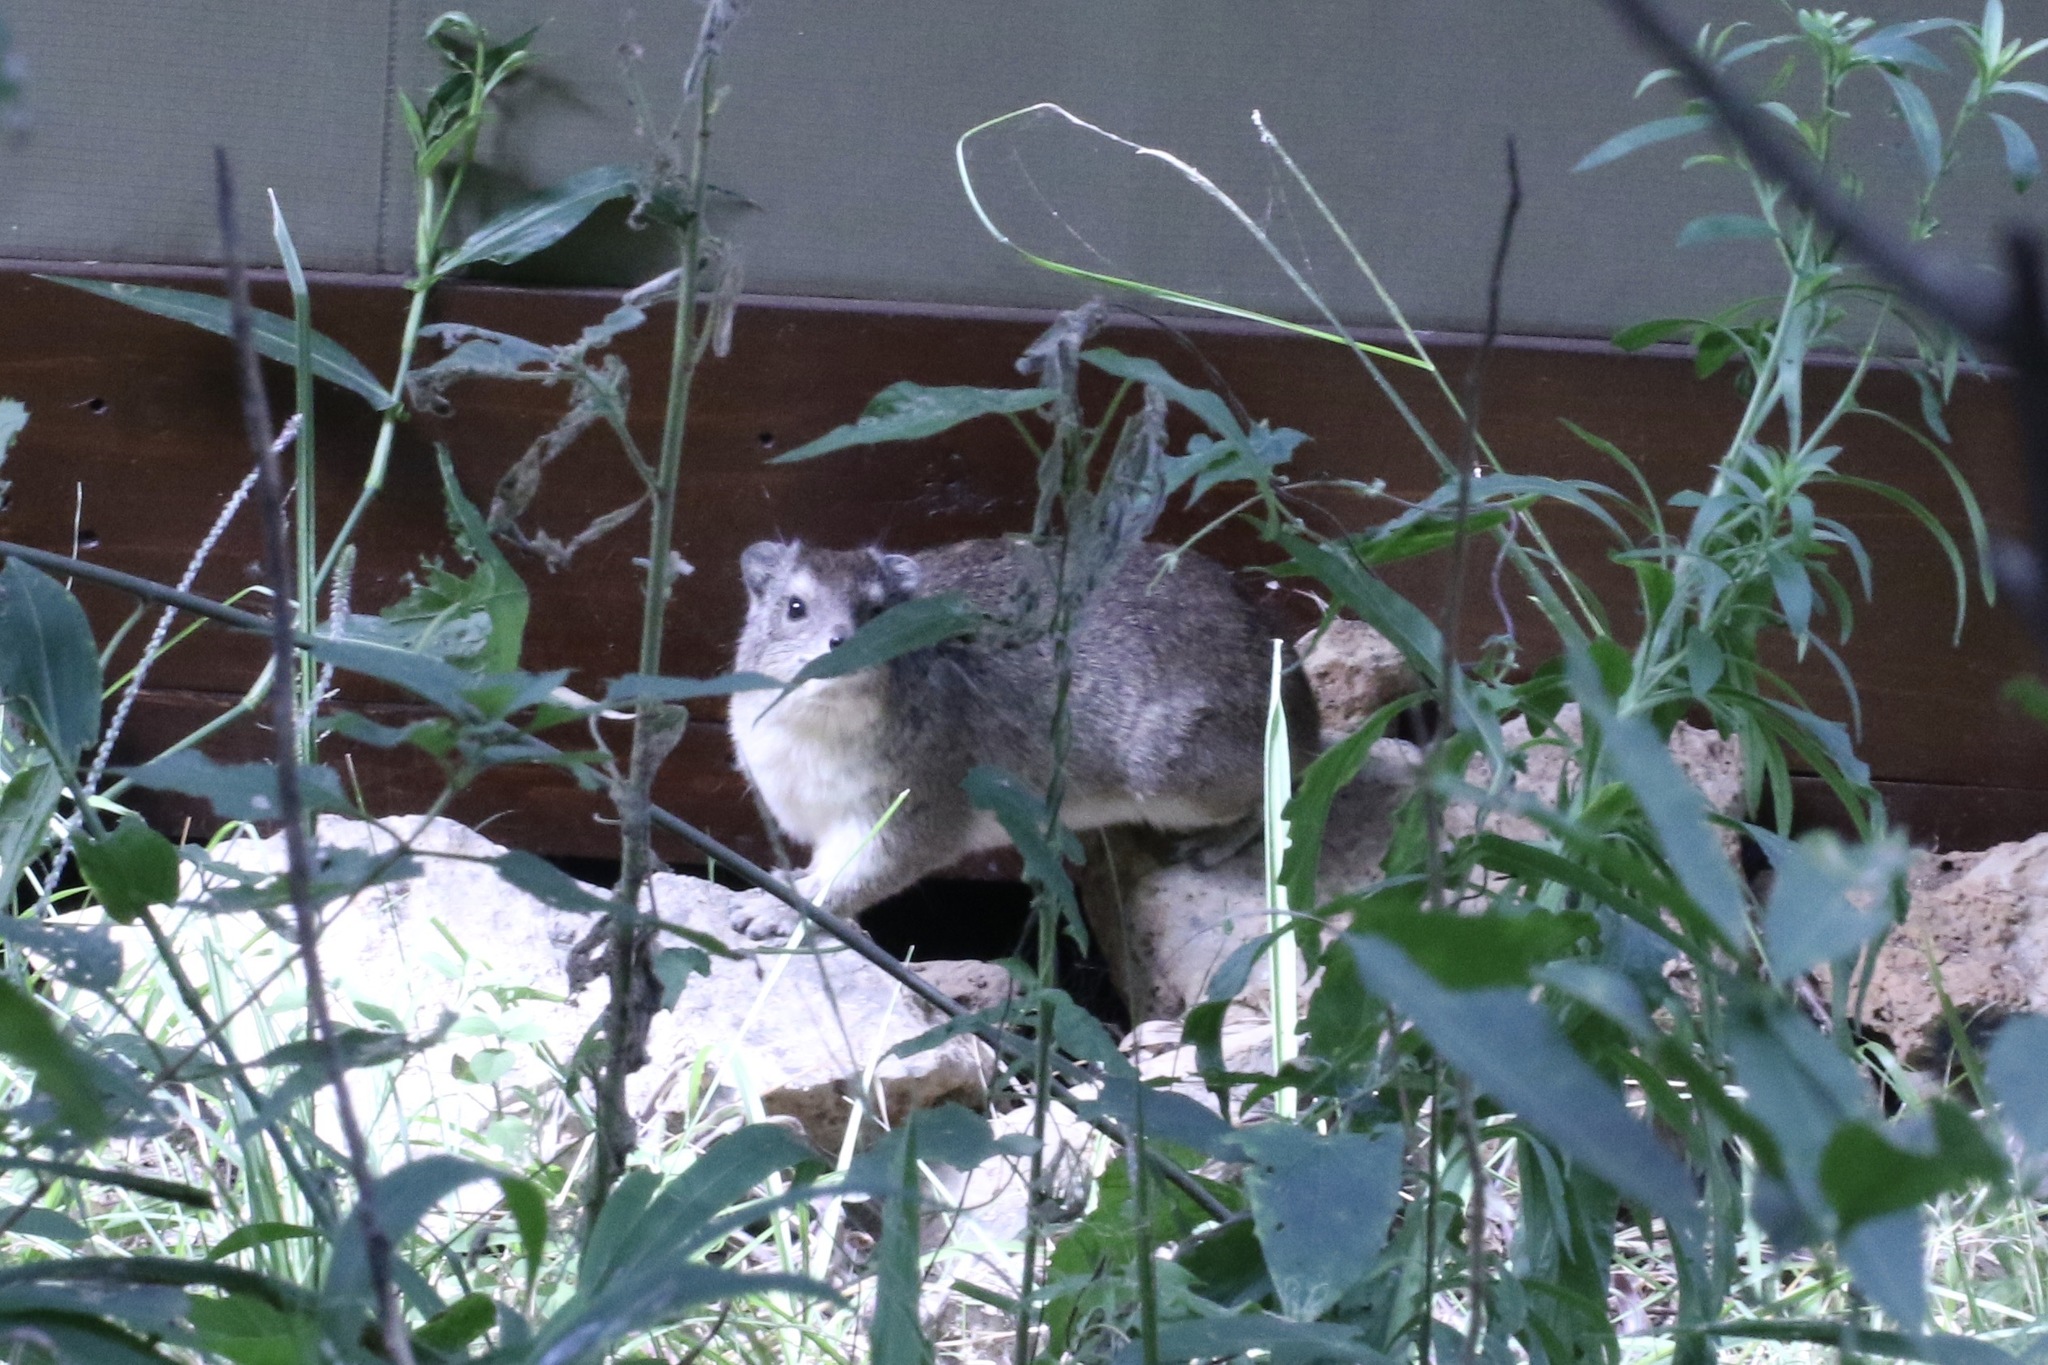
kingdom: Animalia
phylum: Chordata
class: Mammalia
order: Hyracoidea
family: Procaviidae
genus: Heterohyrax
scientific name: Heterohyrax brucei
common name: Bush hyrax
